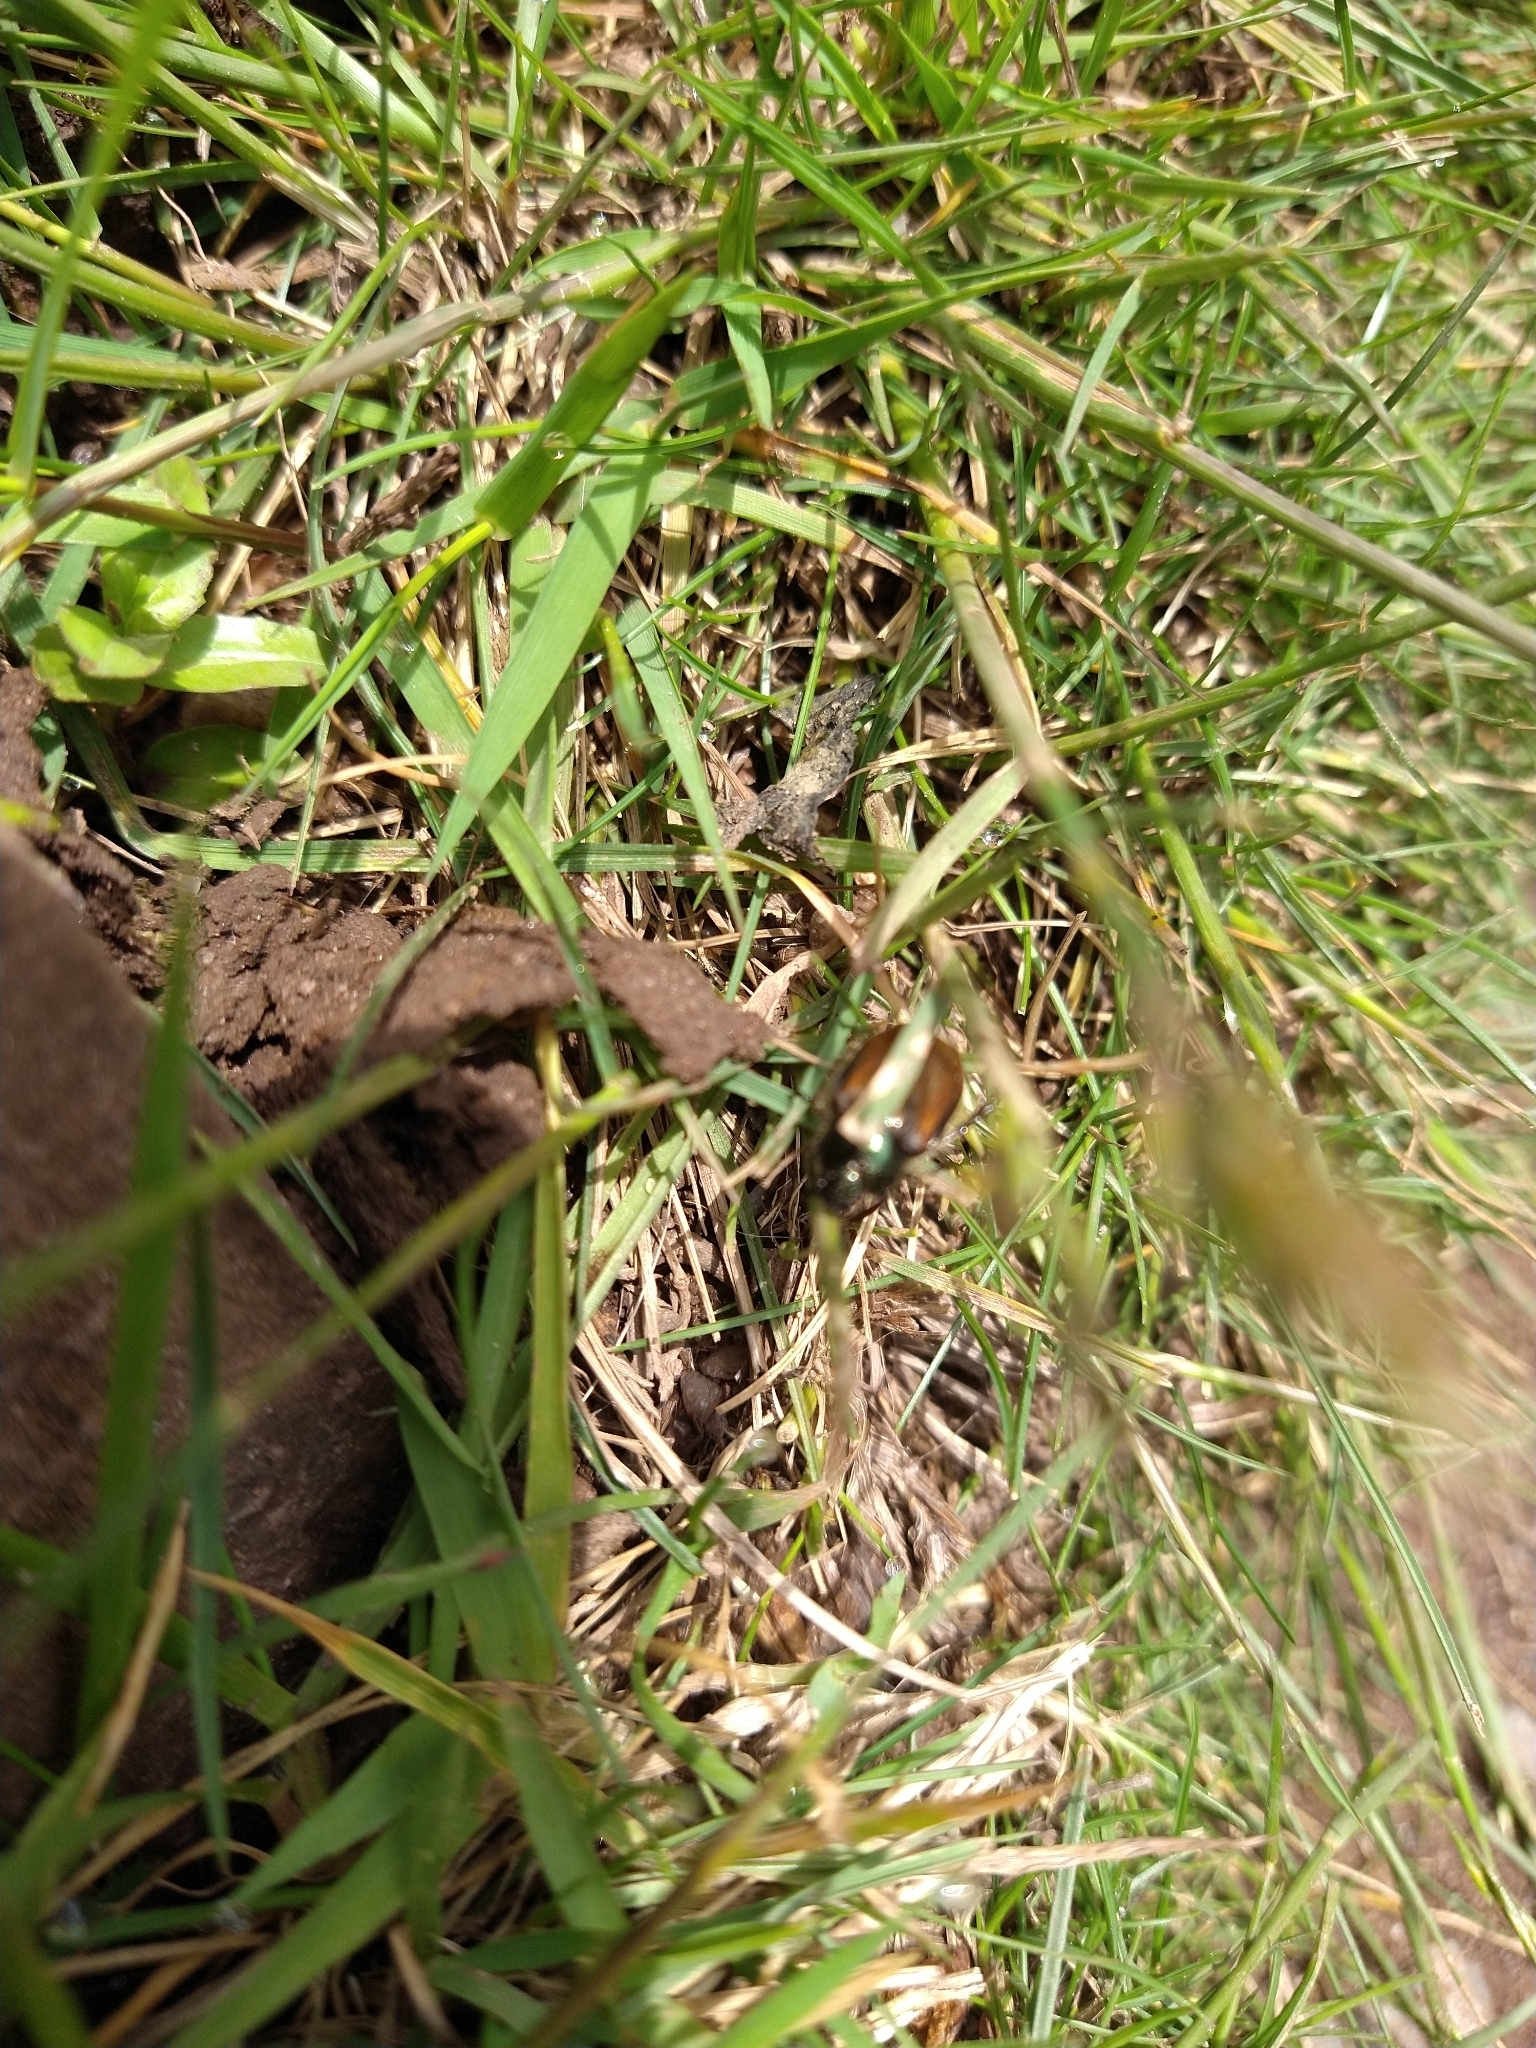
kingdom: Animalia
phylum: Arthropoda
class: Insecta
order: Coleoptera
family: Scarabaeidae
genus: Phyllopertha
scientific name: Phyllopertha horticola
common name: Garden chafer
